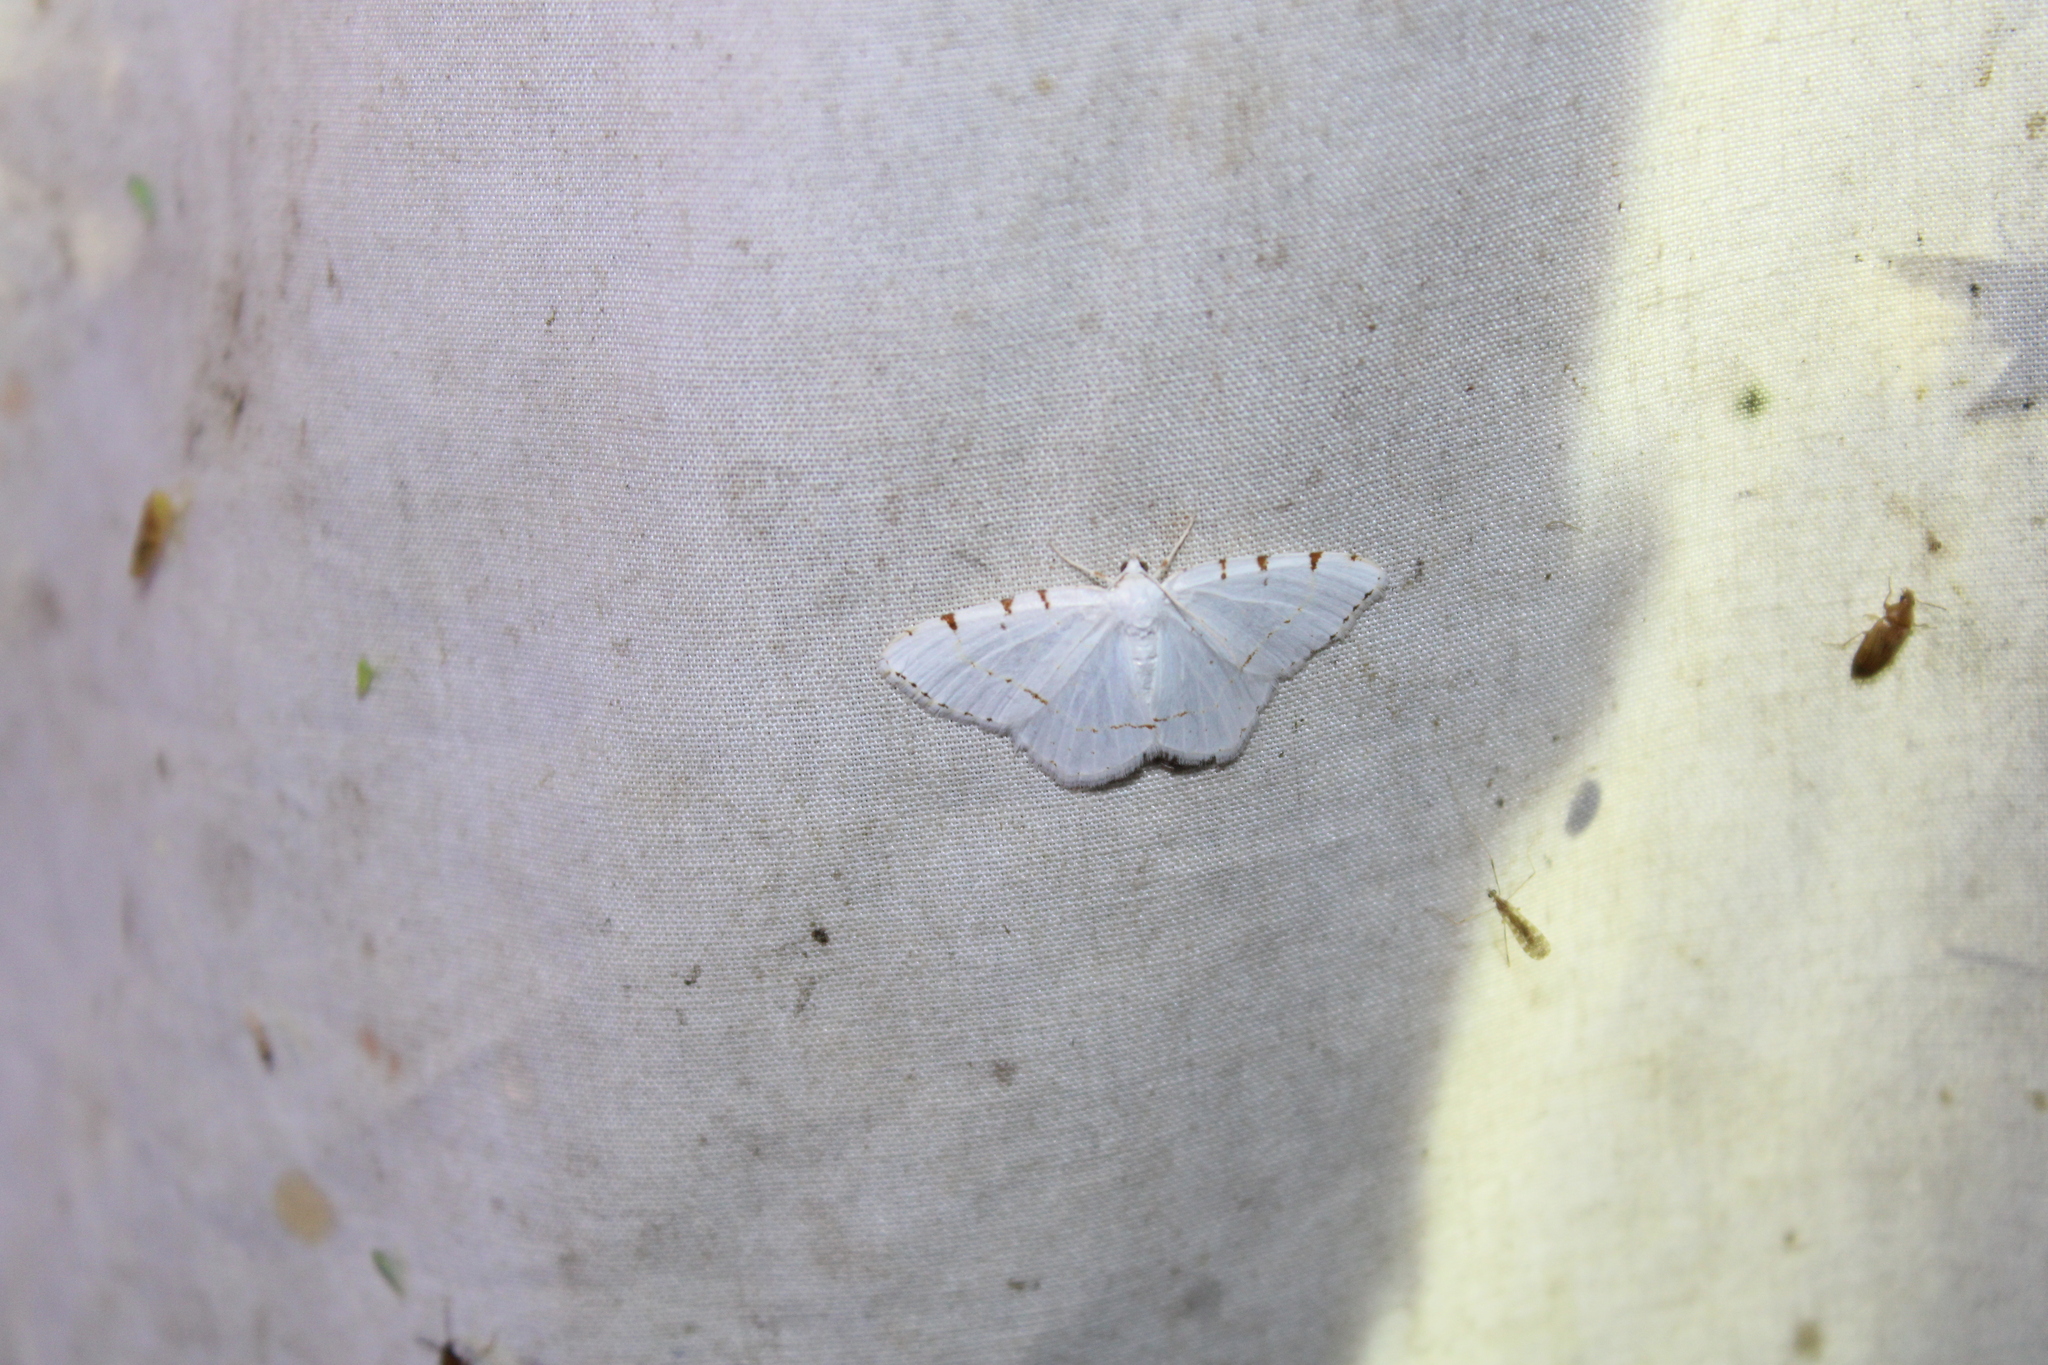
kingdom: Animalia
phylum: Arthropoda
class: Insecta
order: Lepidoptera
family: Geometridae
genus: Macaria
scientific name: Macaria pustularia
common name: Lesser maple spanworm moth
